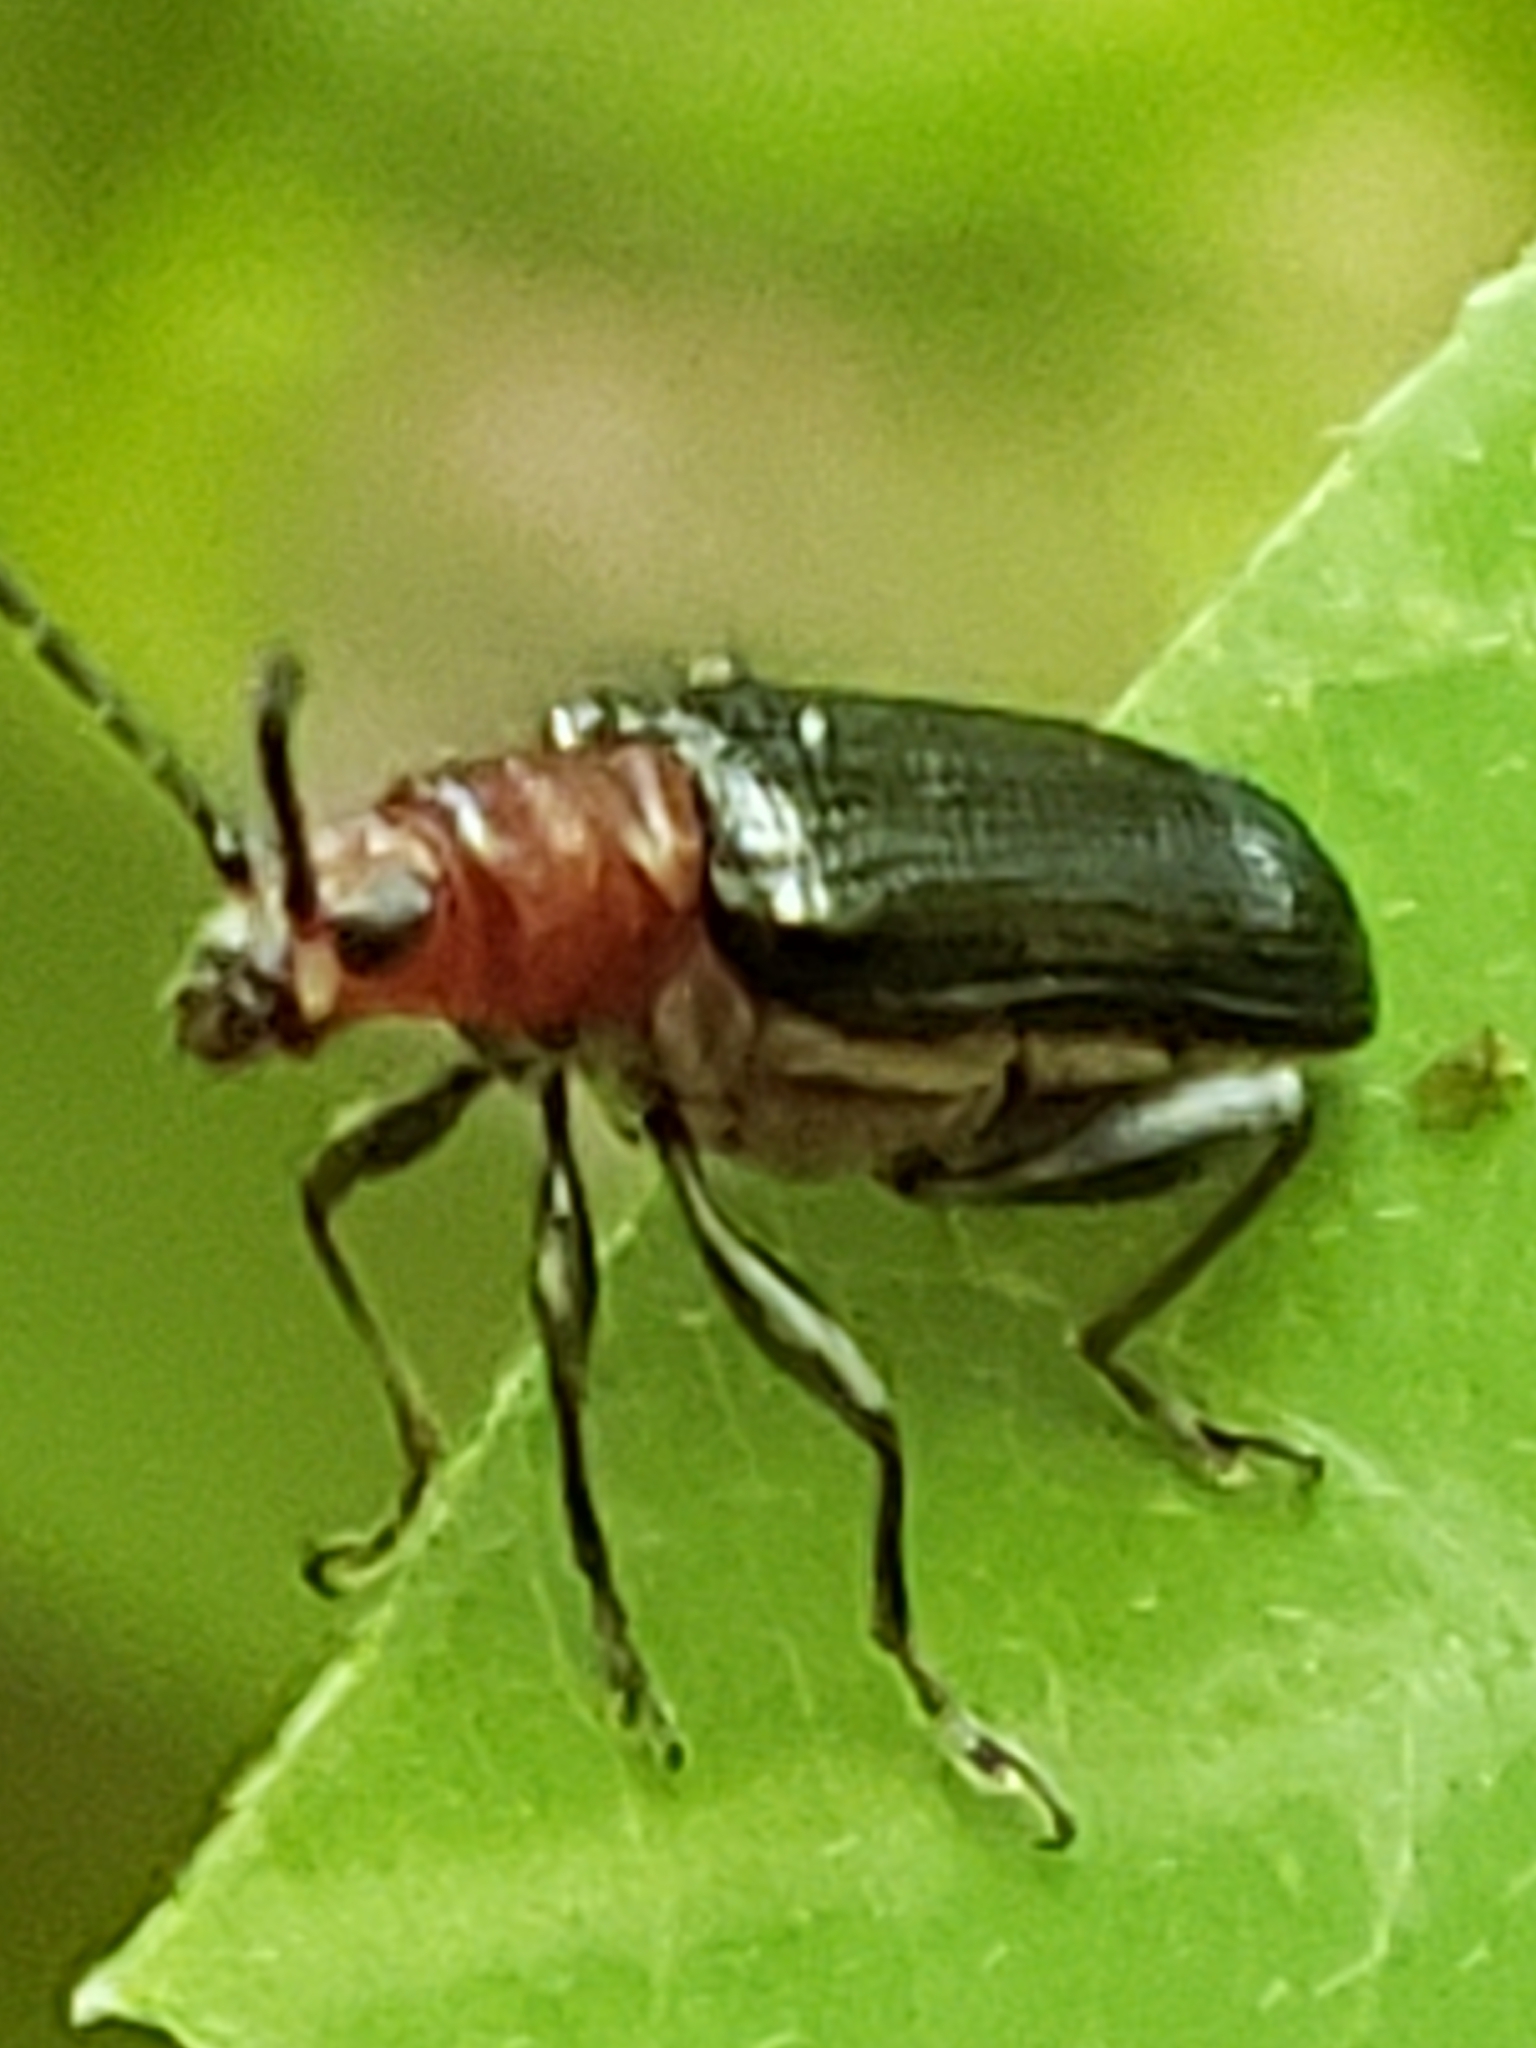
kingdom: Animalia
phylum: Arthropoda
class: Insecta
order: Coleoptera
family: Chrysomelidae
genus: Oulema
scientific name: Oulema sayi
